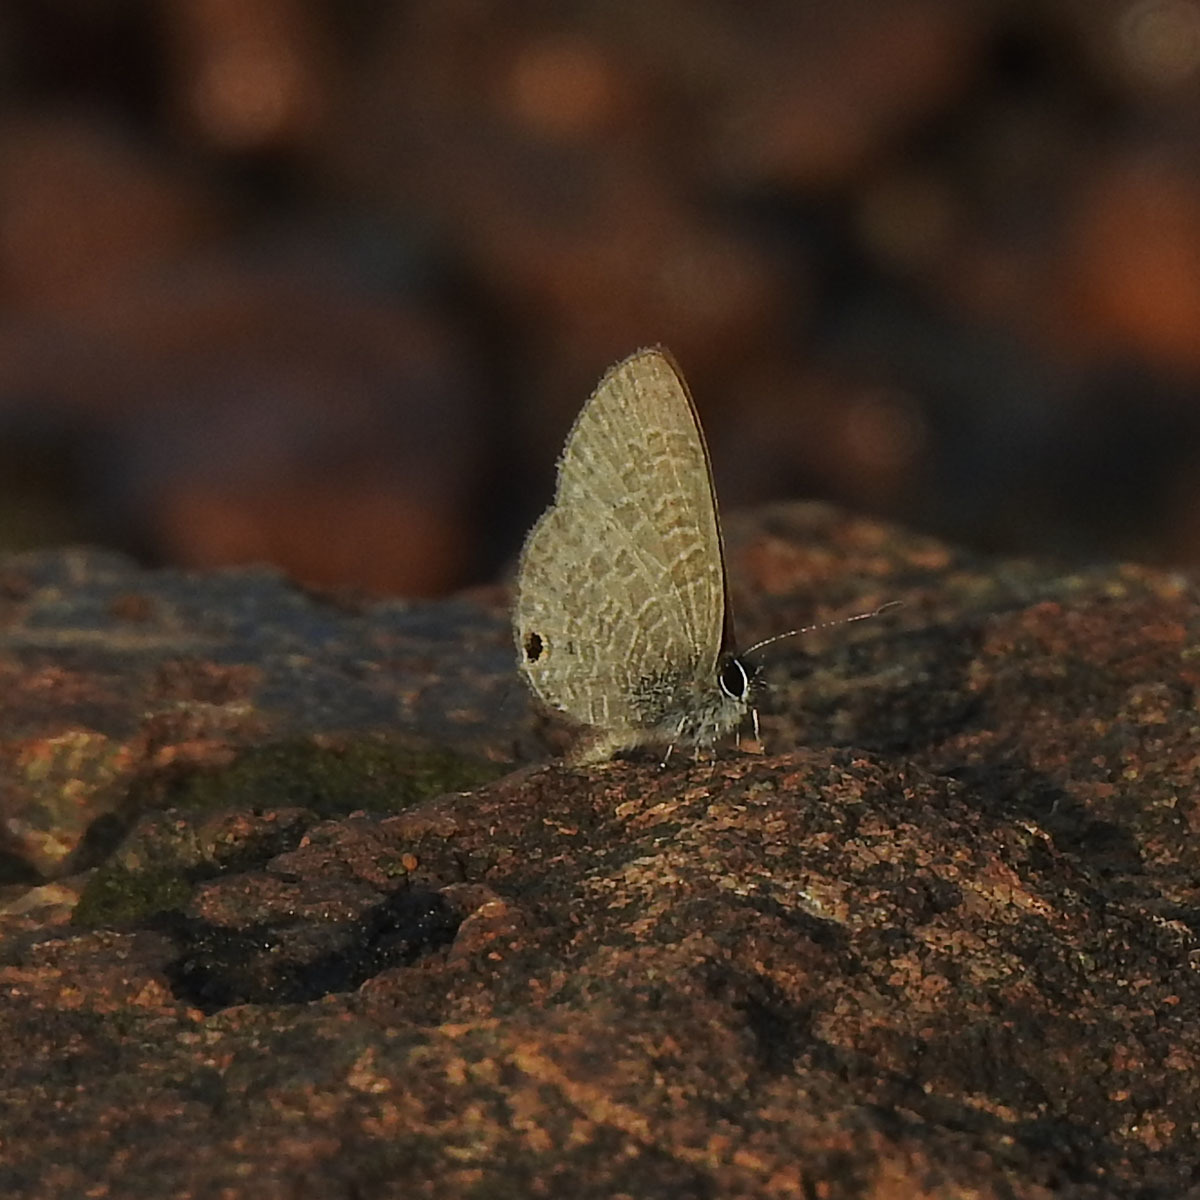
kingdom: Animalia
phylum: Arthropoda
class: Insecta
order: Lepidoptera
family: Lycaenidae
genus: Prosotas
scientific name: Prosotas dubiosa
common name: Tailless lineblue
